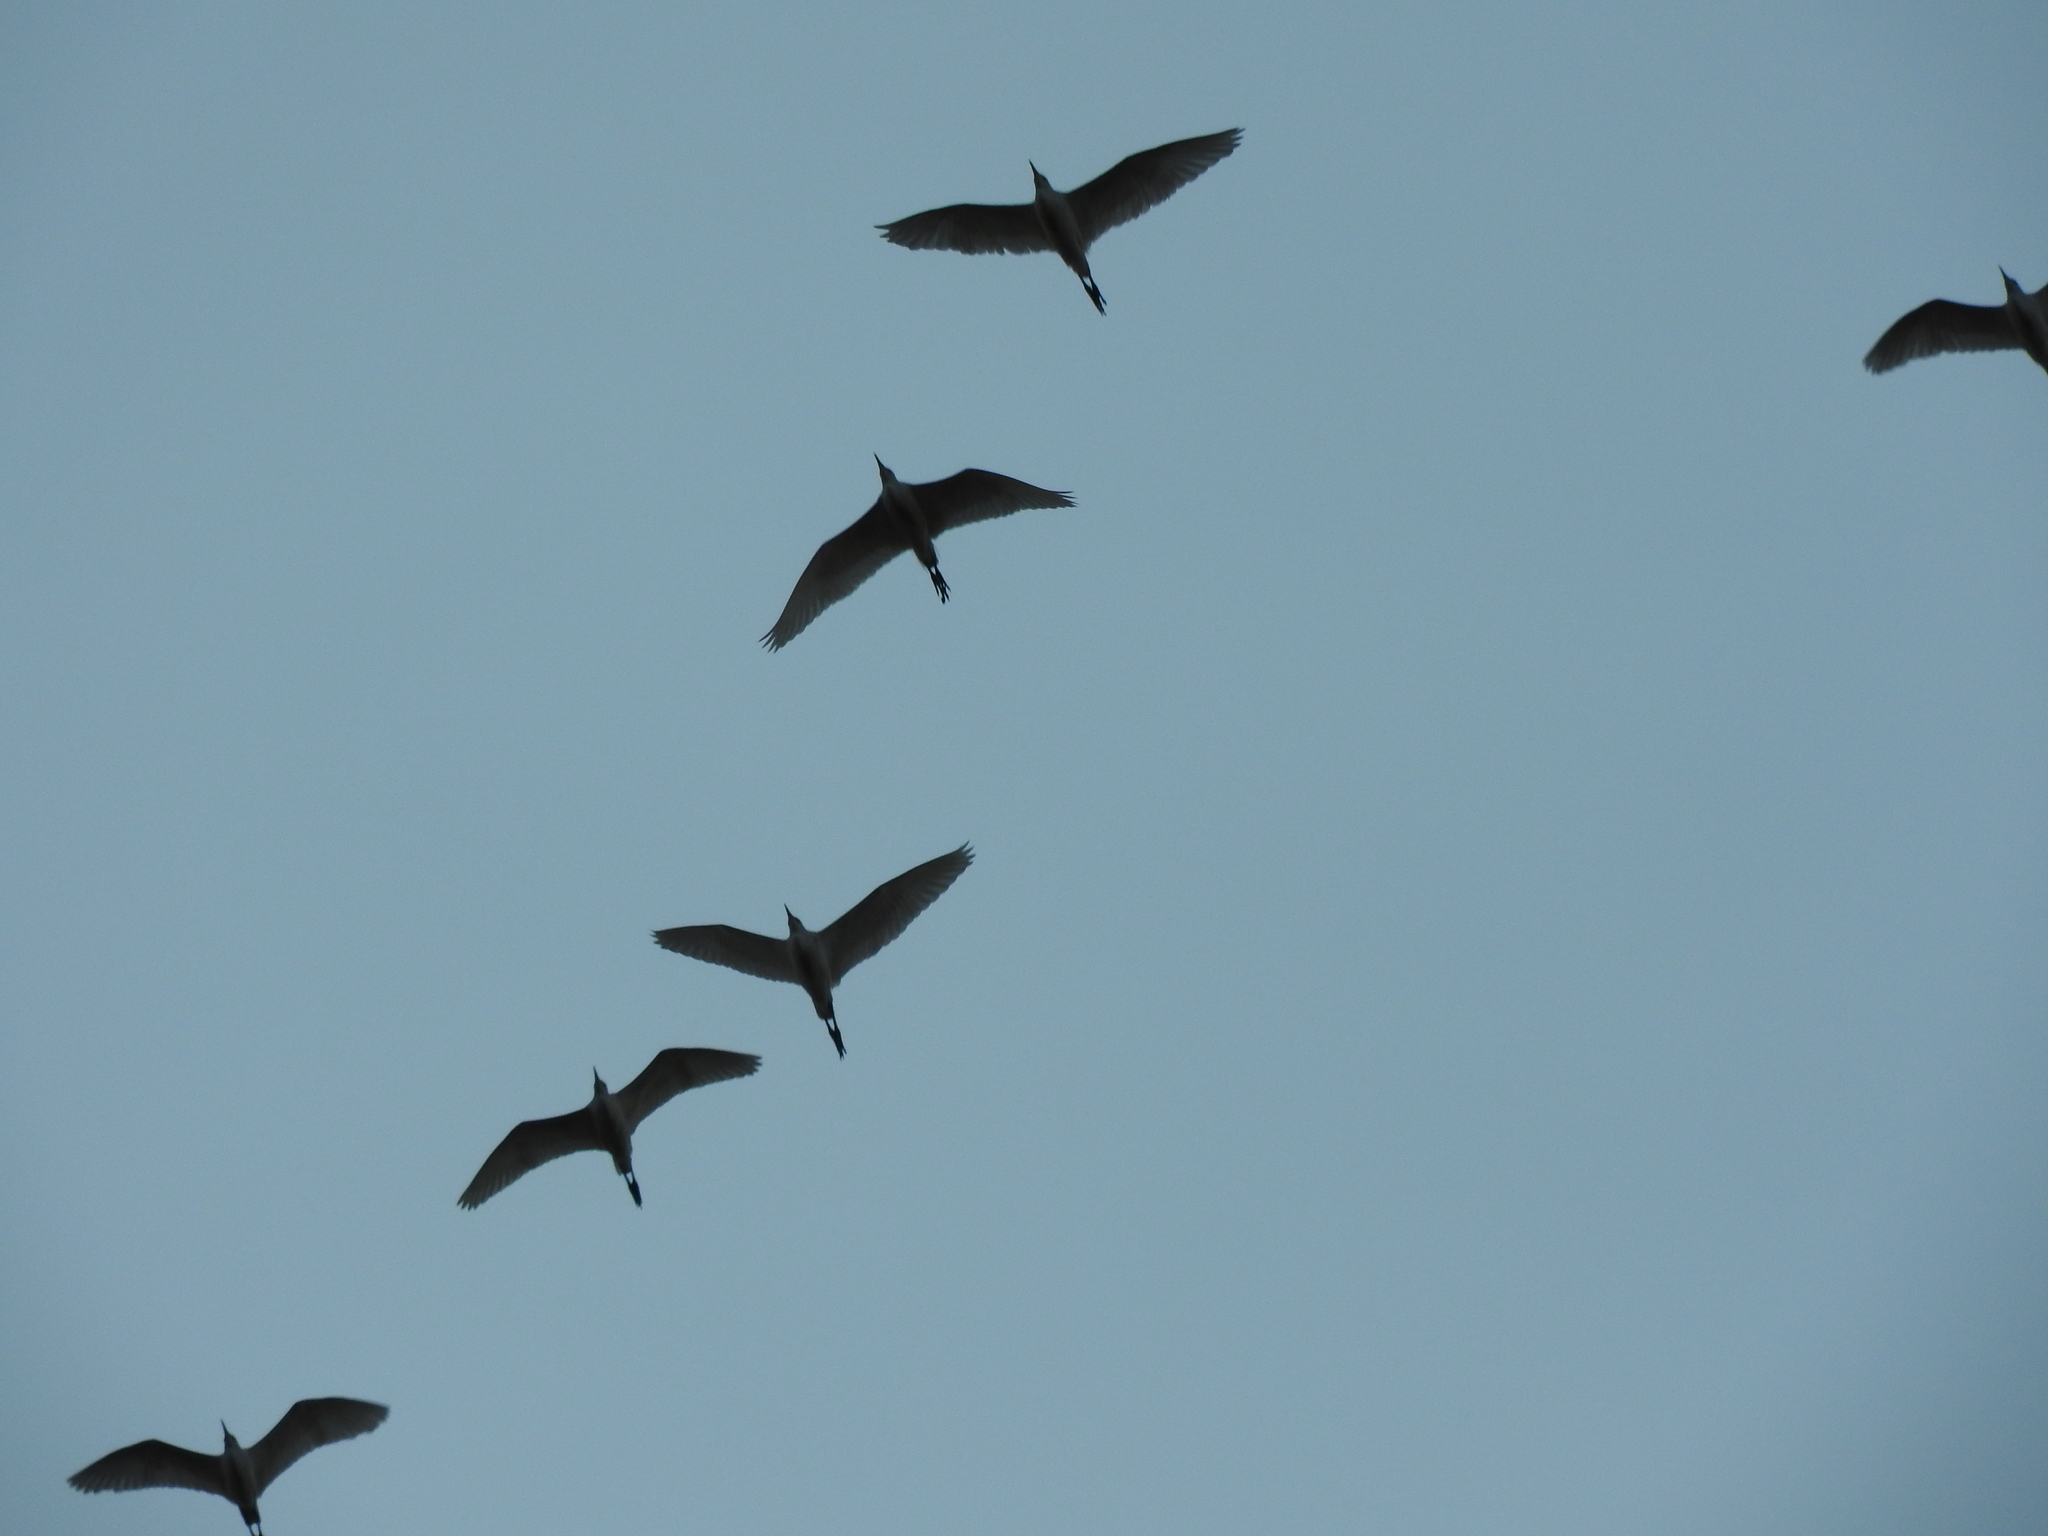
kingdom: Animalia
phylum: Chordata
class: Aves
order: Pelecaniformes
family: Ardeidae
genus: Bubulcus
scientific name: Bubulcus ibis
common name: Cattle egret
